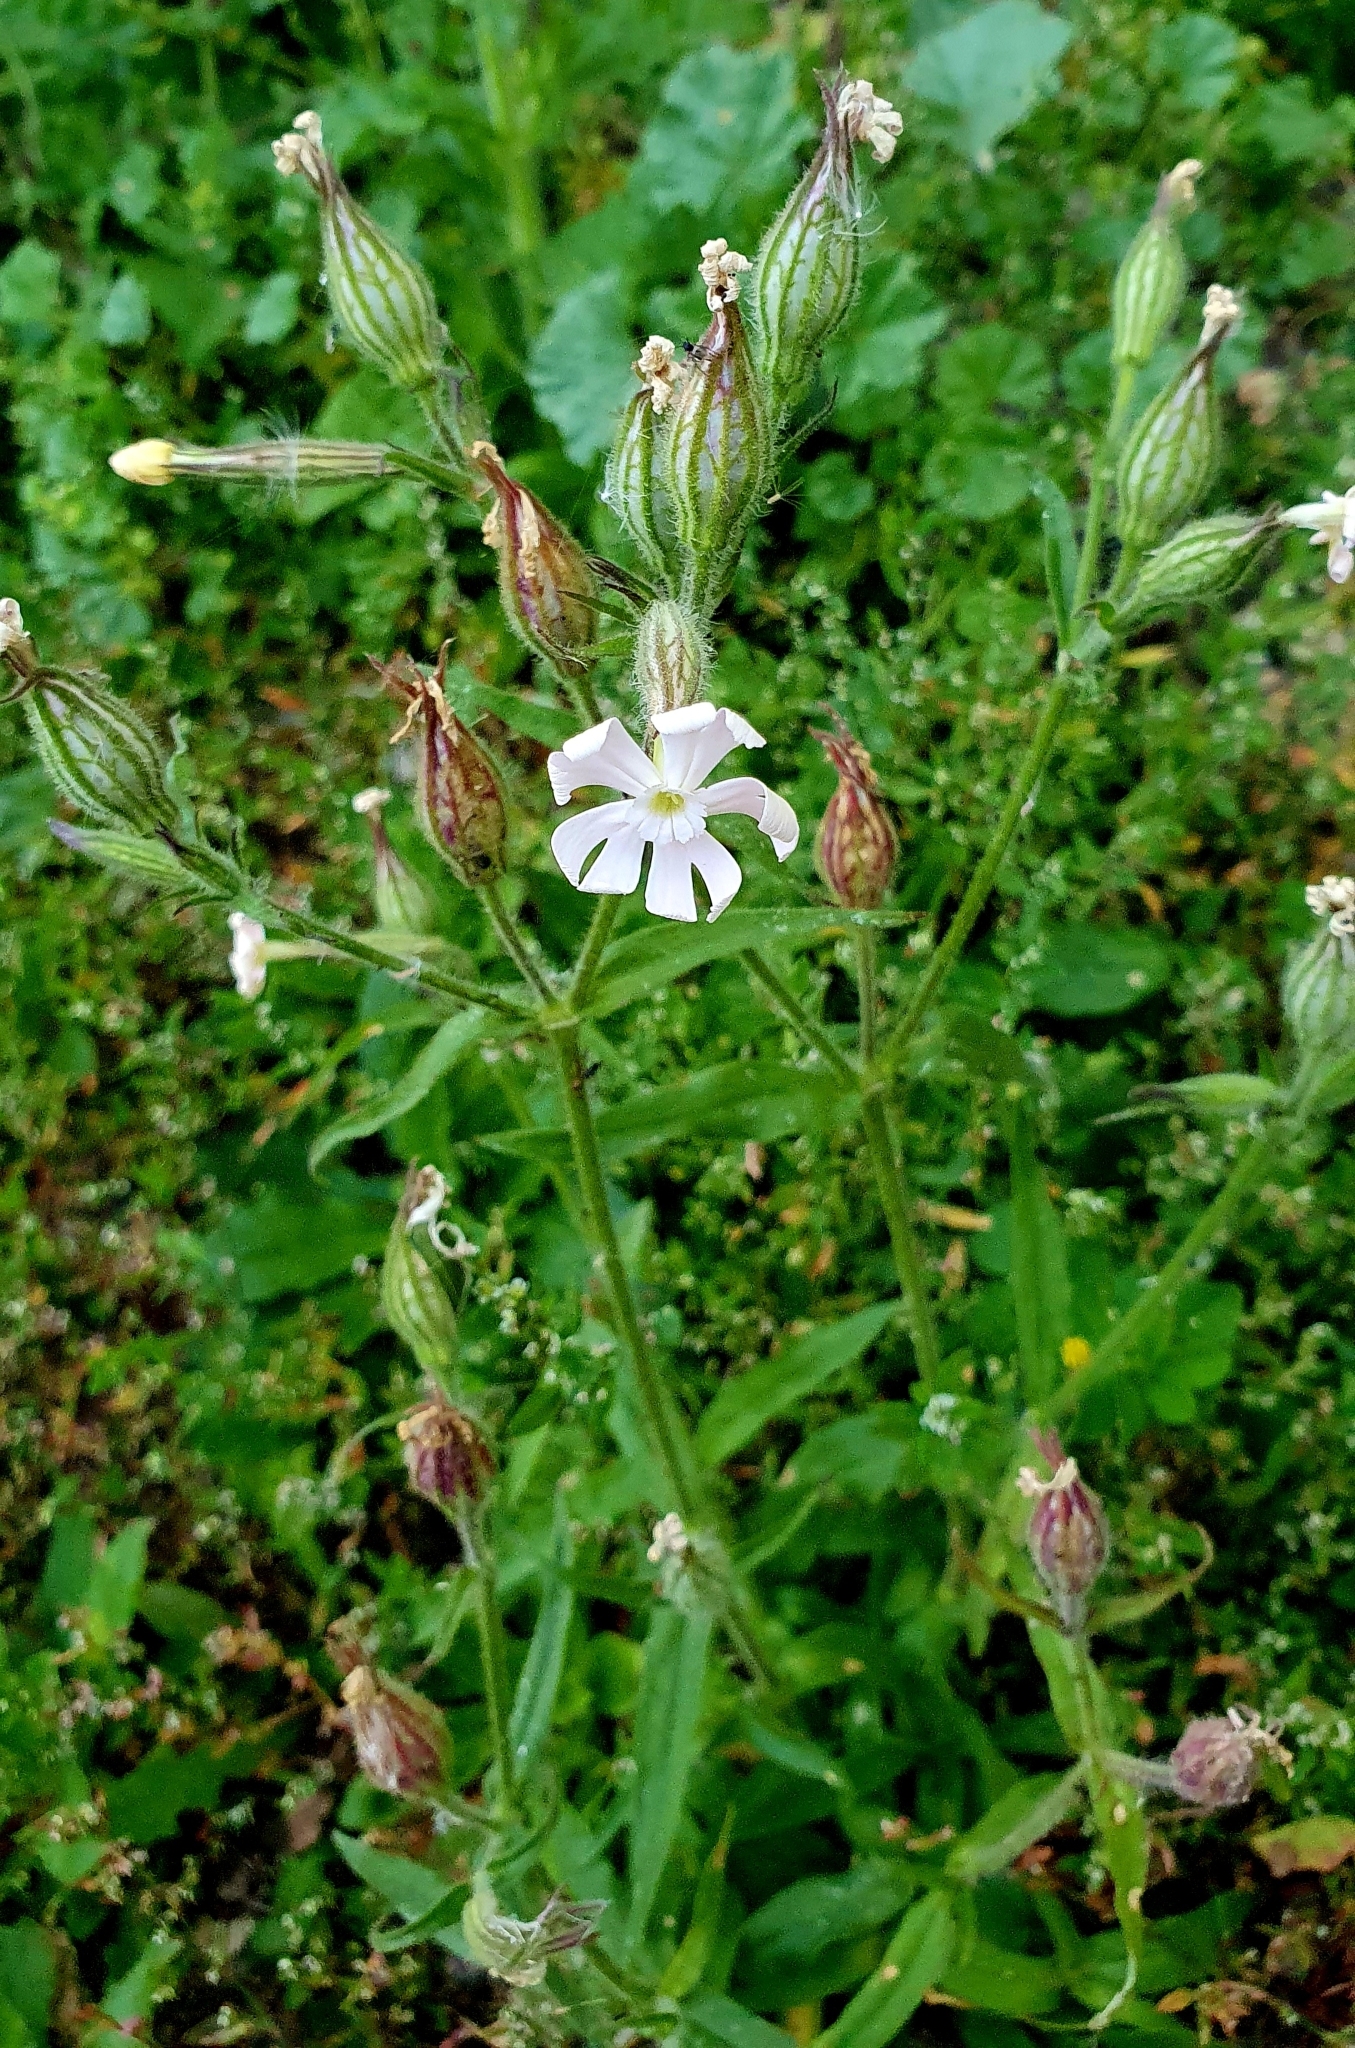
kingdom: Plantae
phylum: Tracheophyta
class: Magnoliopsida
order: Caryophyllales
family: Caryophyllaceae
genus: Silene
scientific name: Silene noctiflora
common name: Night-flowering catchfly
